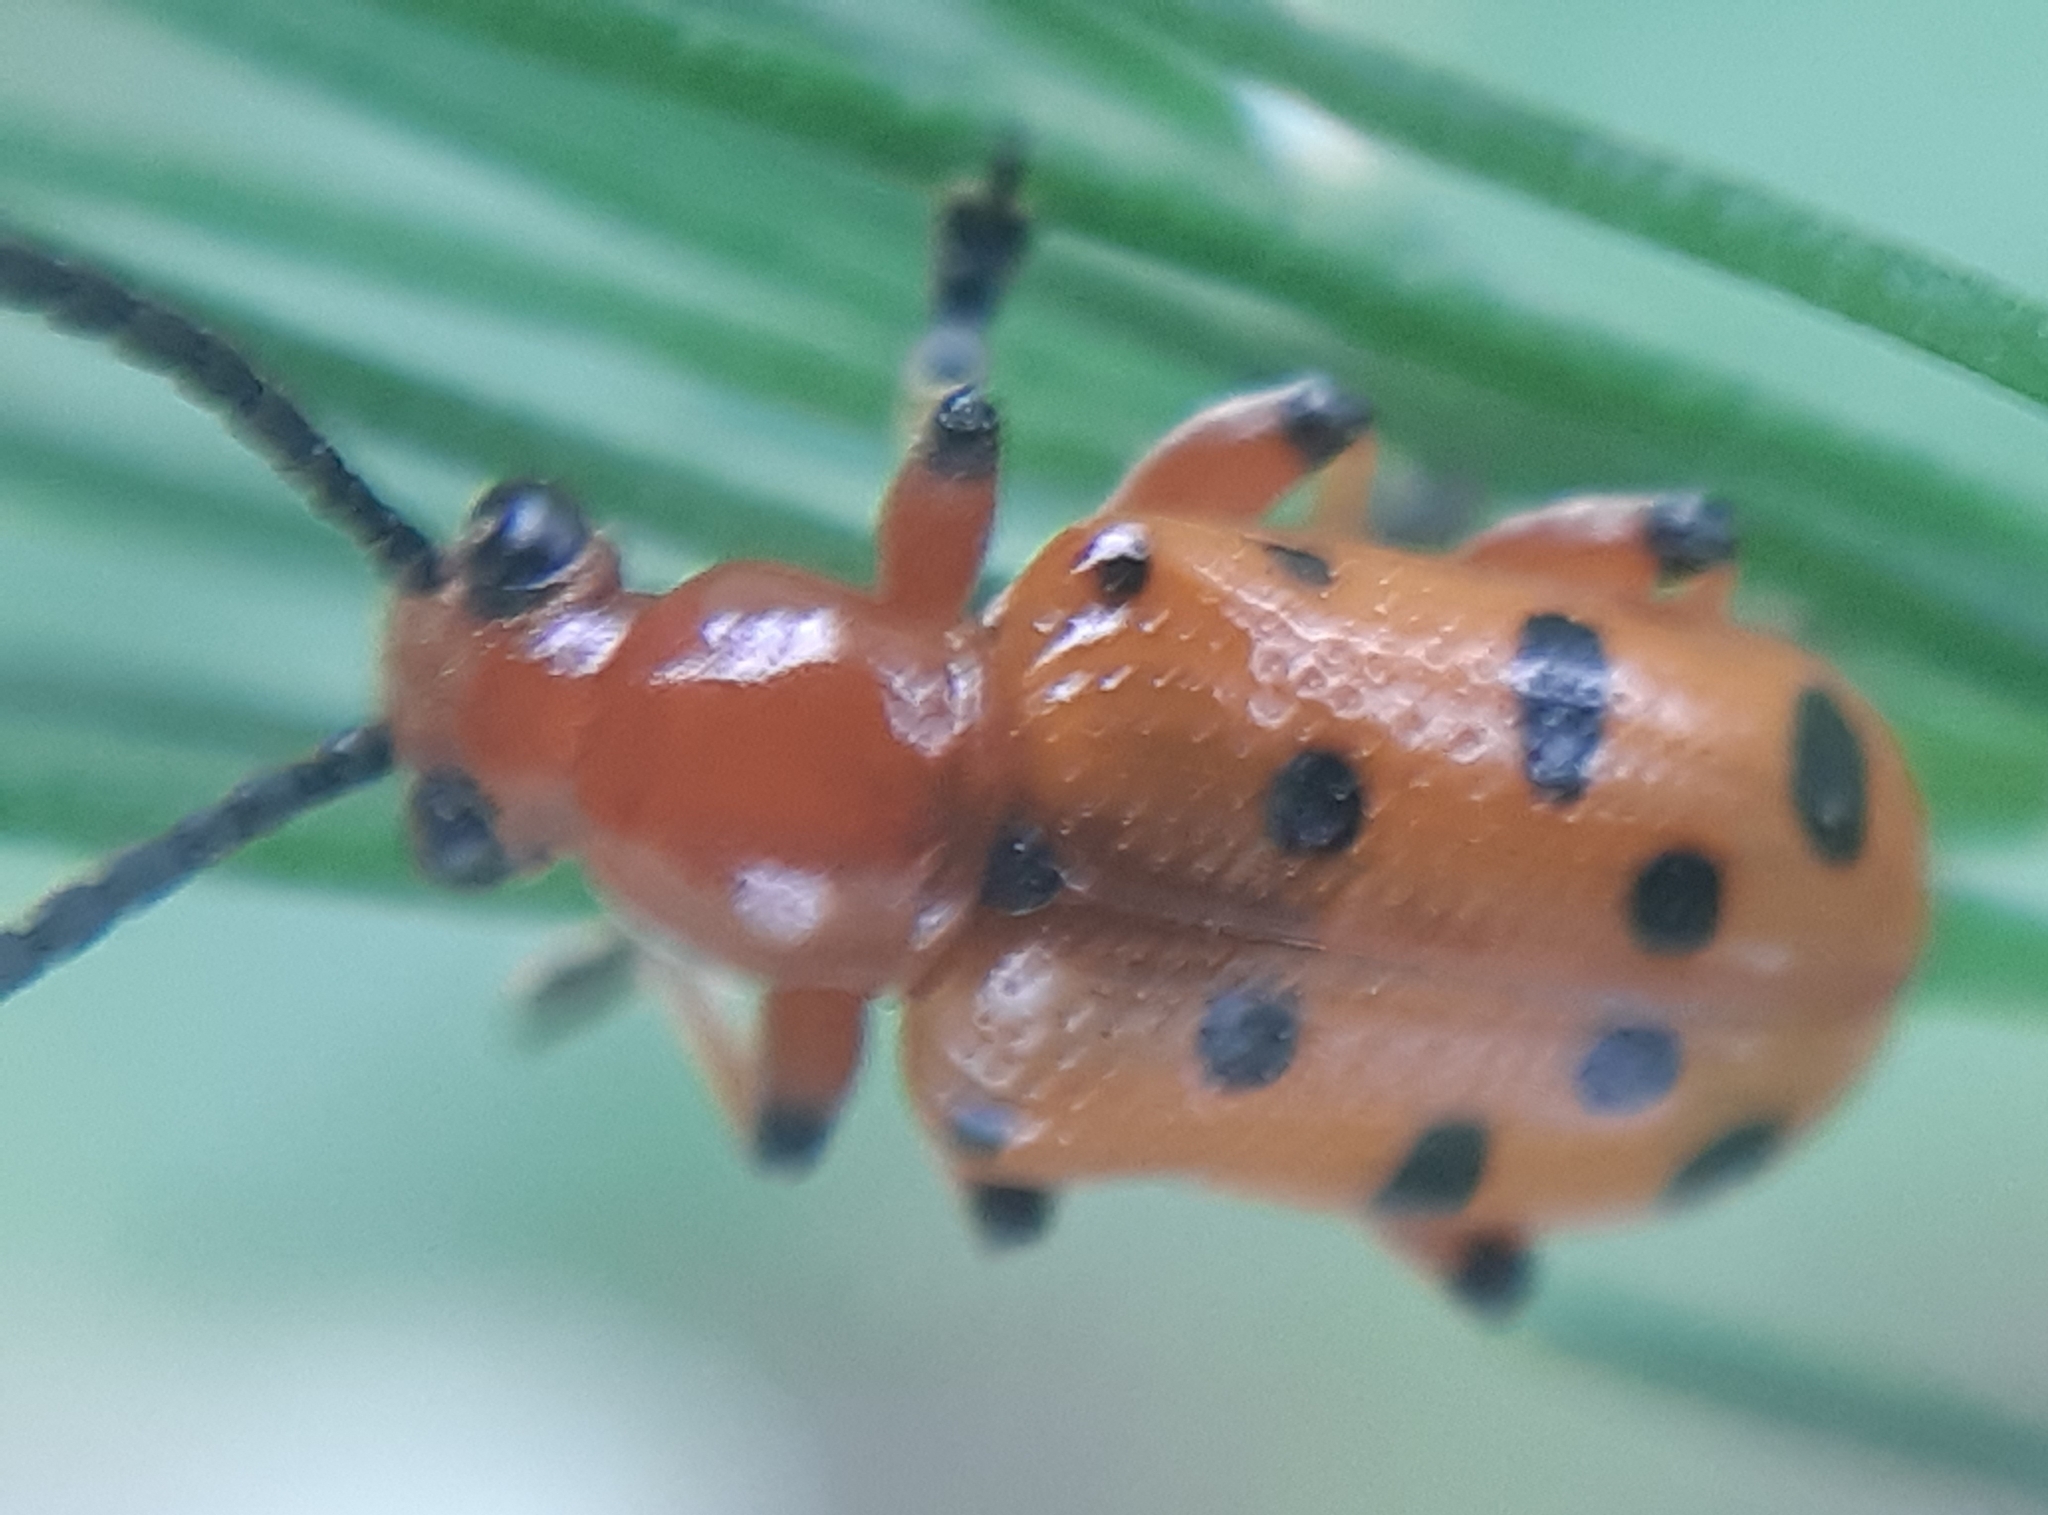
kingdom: Animalia
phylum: Arthropoda
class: Insecta
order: Coleoptera
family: Chrysomelidae
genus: Crioceris
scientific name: Crioceris duodecimpunctata
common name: Twelve-spotted asparagus beetle
